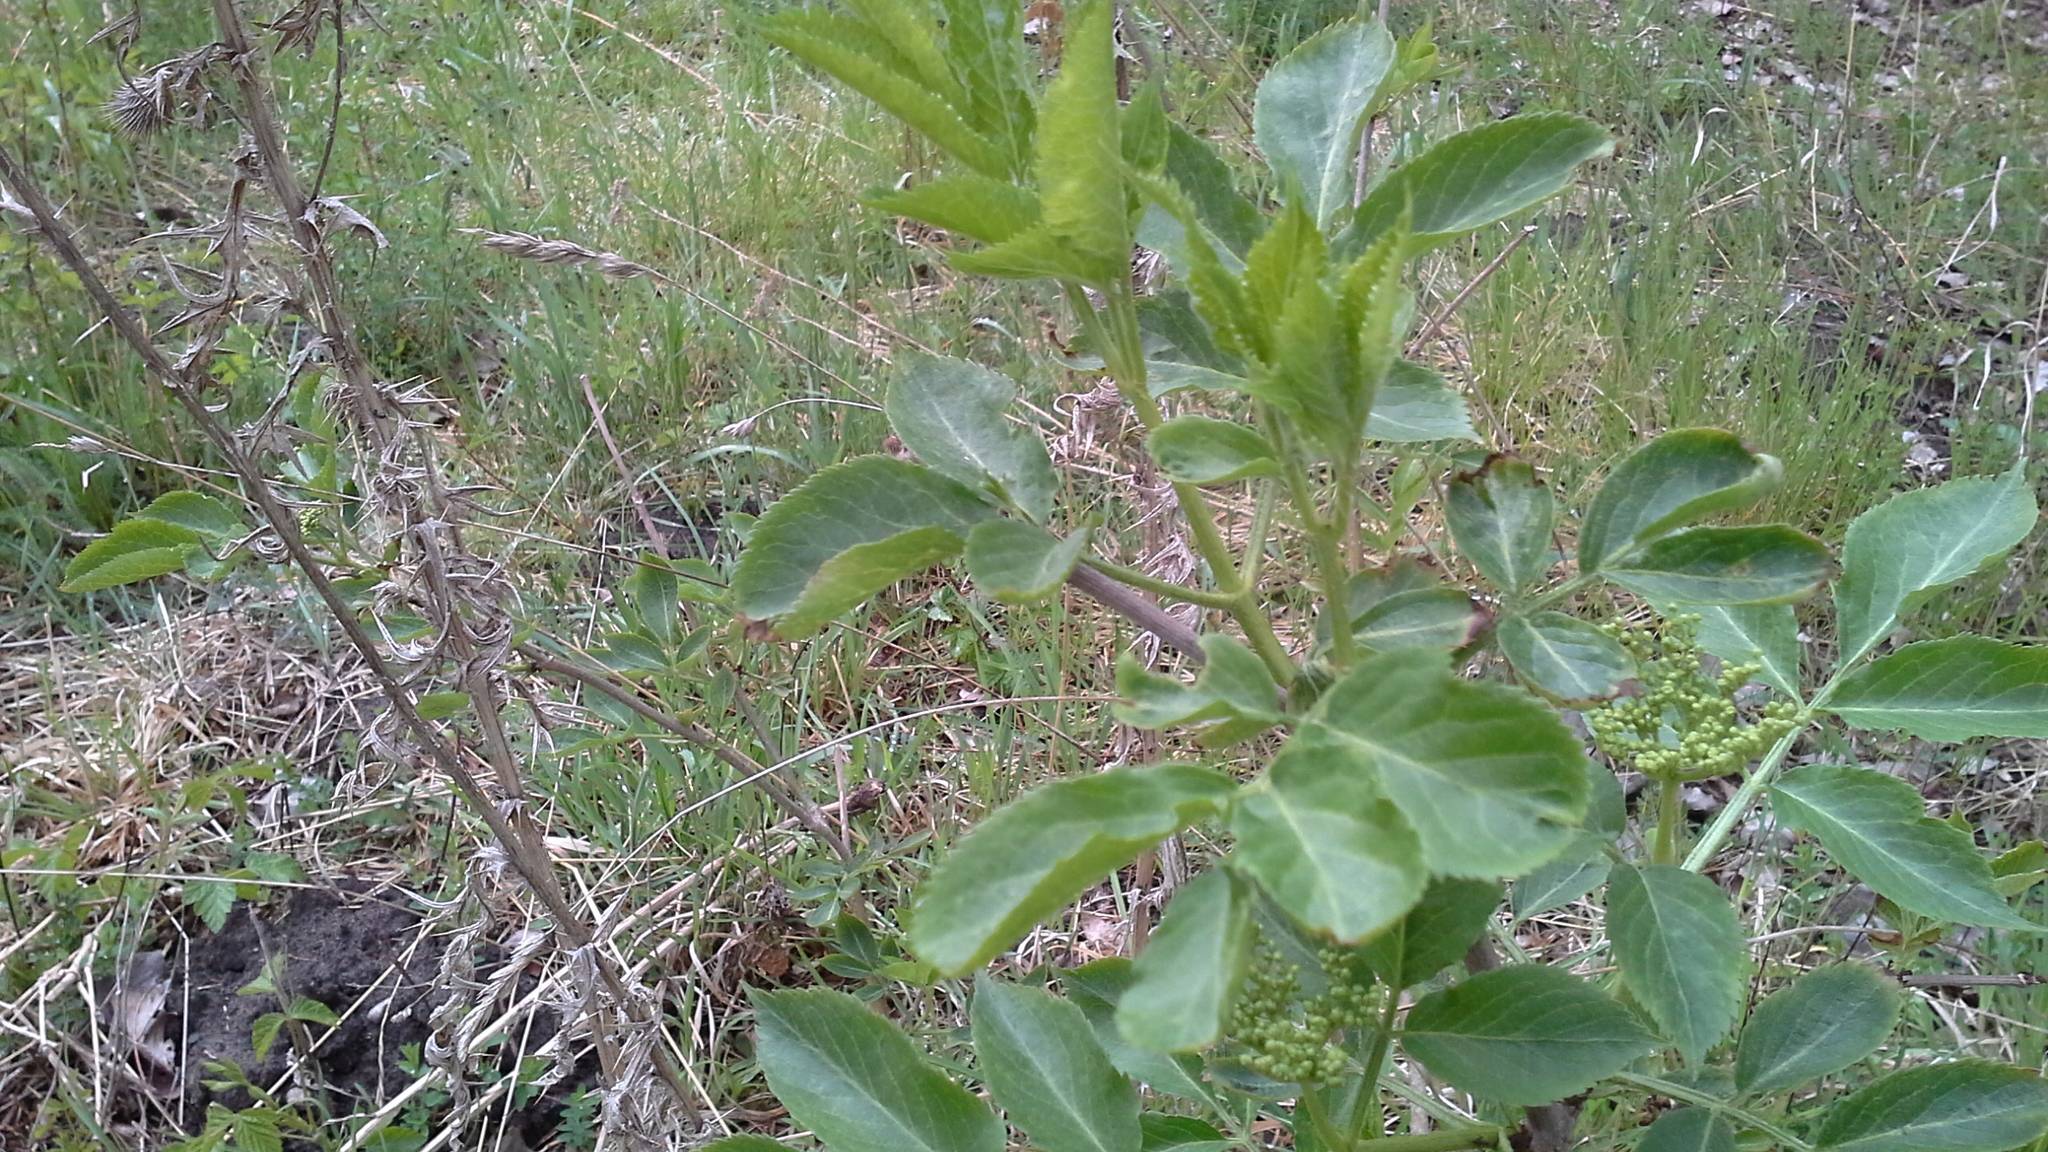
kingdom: Plantae
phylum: Tracheophyta
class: Magnoliopsida
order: Dipsacales
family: Viburnaceae
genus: Sambucus
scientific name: Sambucus nigra
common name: Elder
